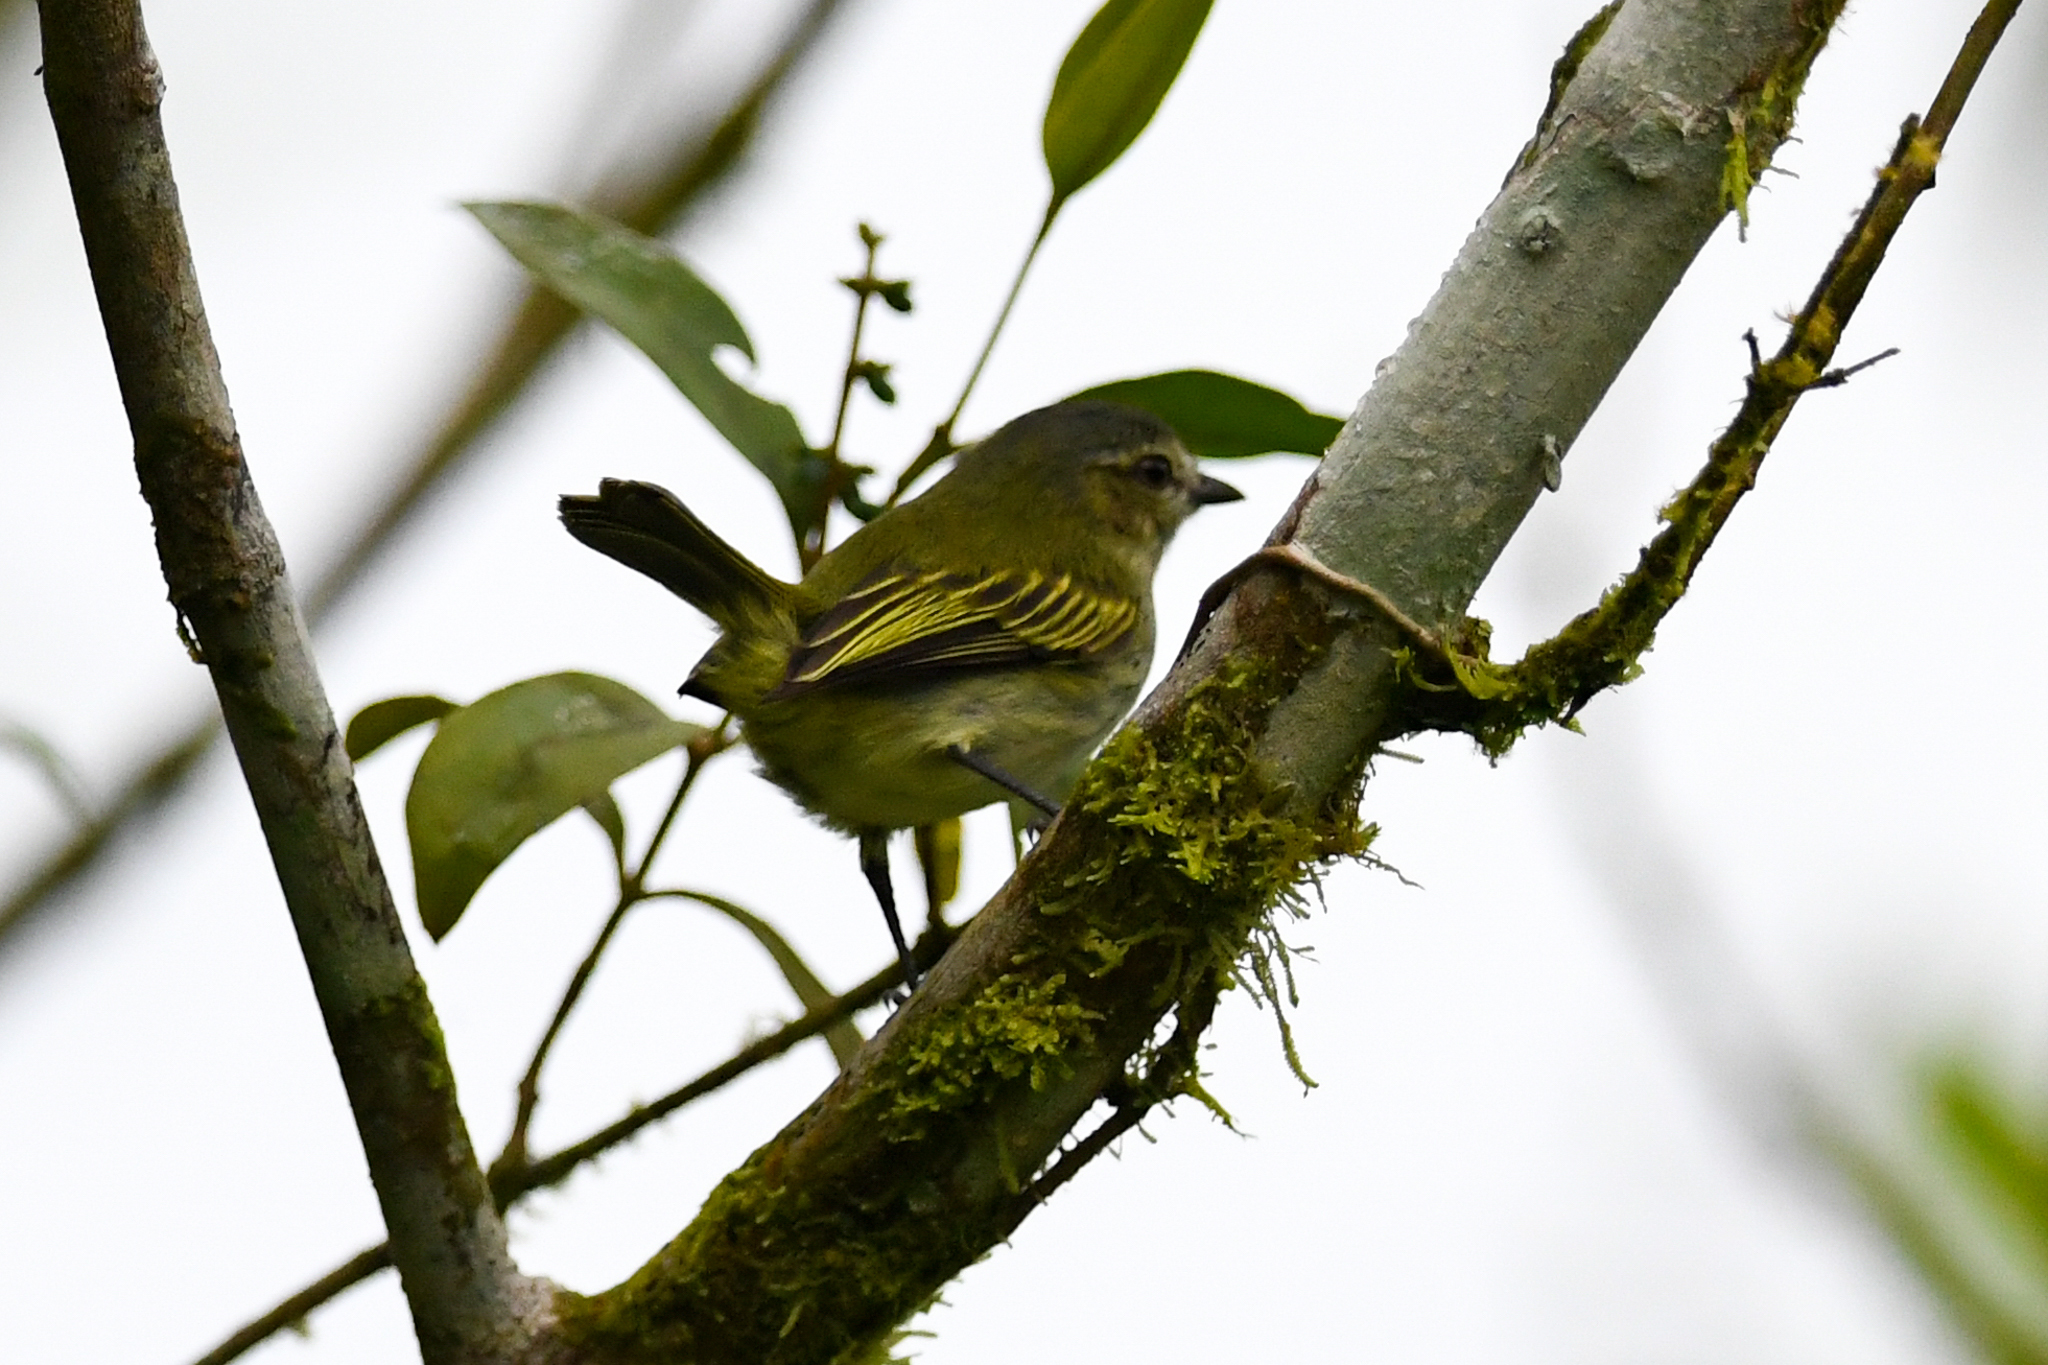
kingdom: Animalia
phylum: Chordata
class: Aves
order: Passeriformes
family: Tyrannidae
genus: Zimmerius
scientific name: Zimmerius vilissimus
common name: Paltry tyrannulet
